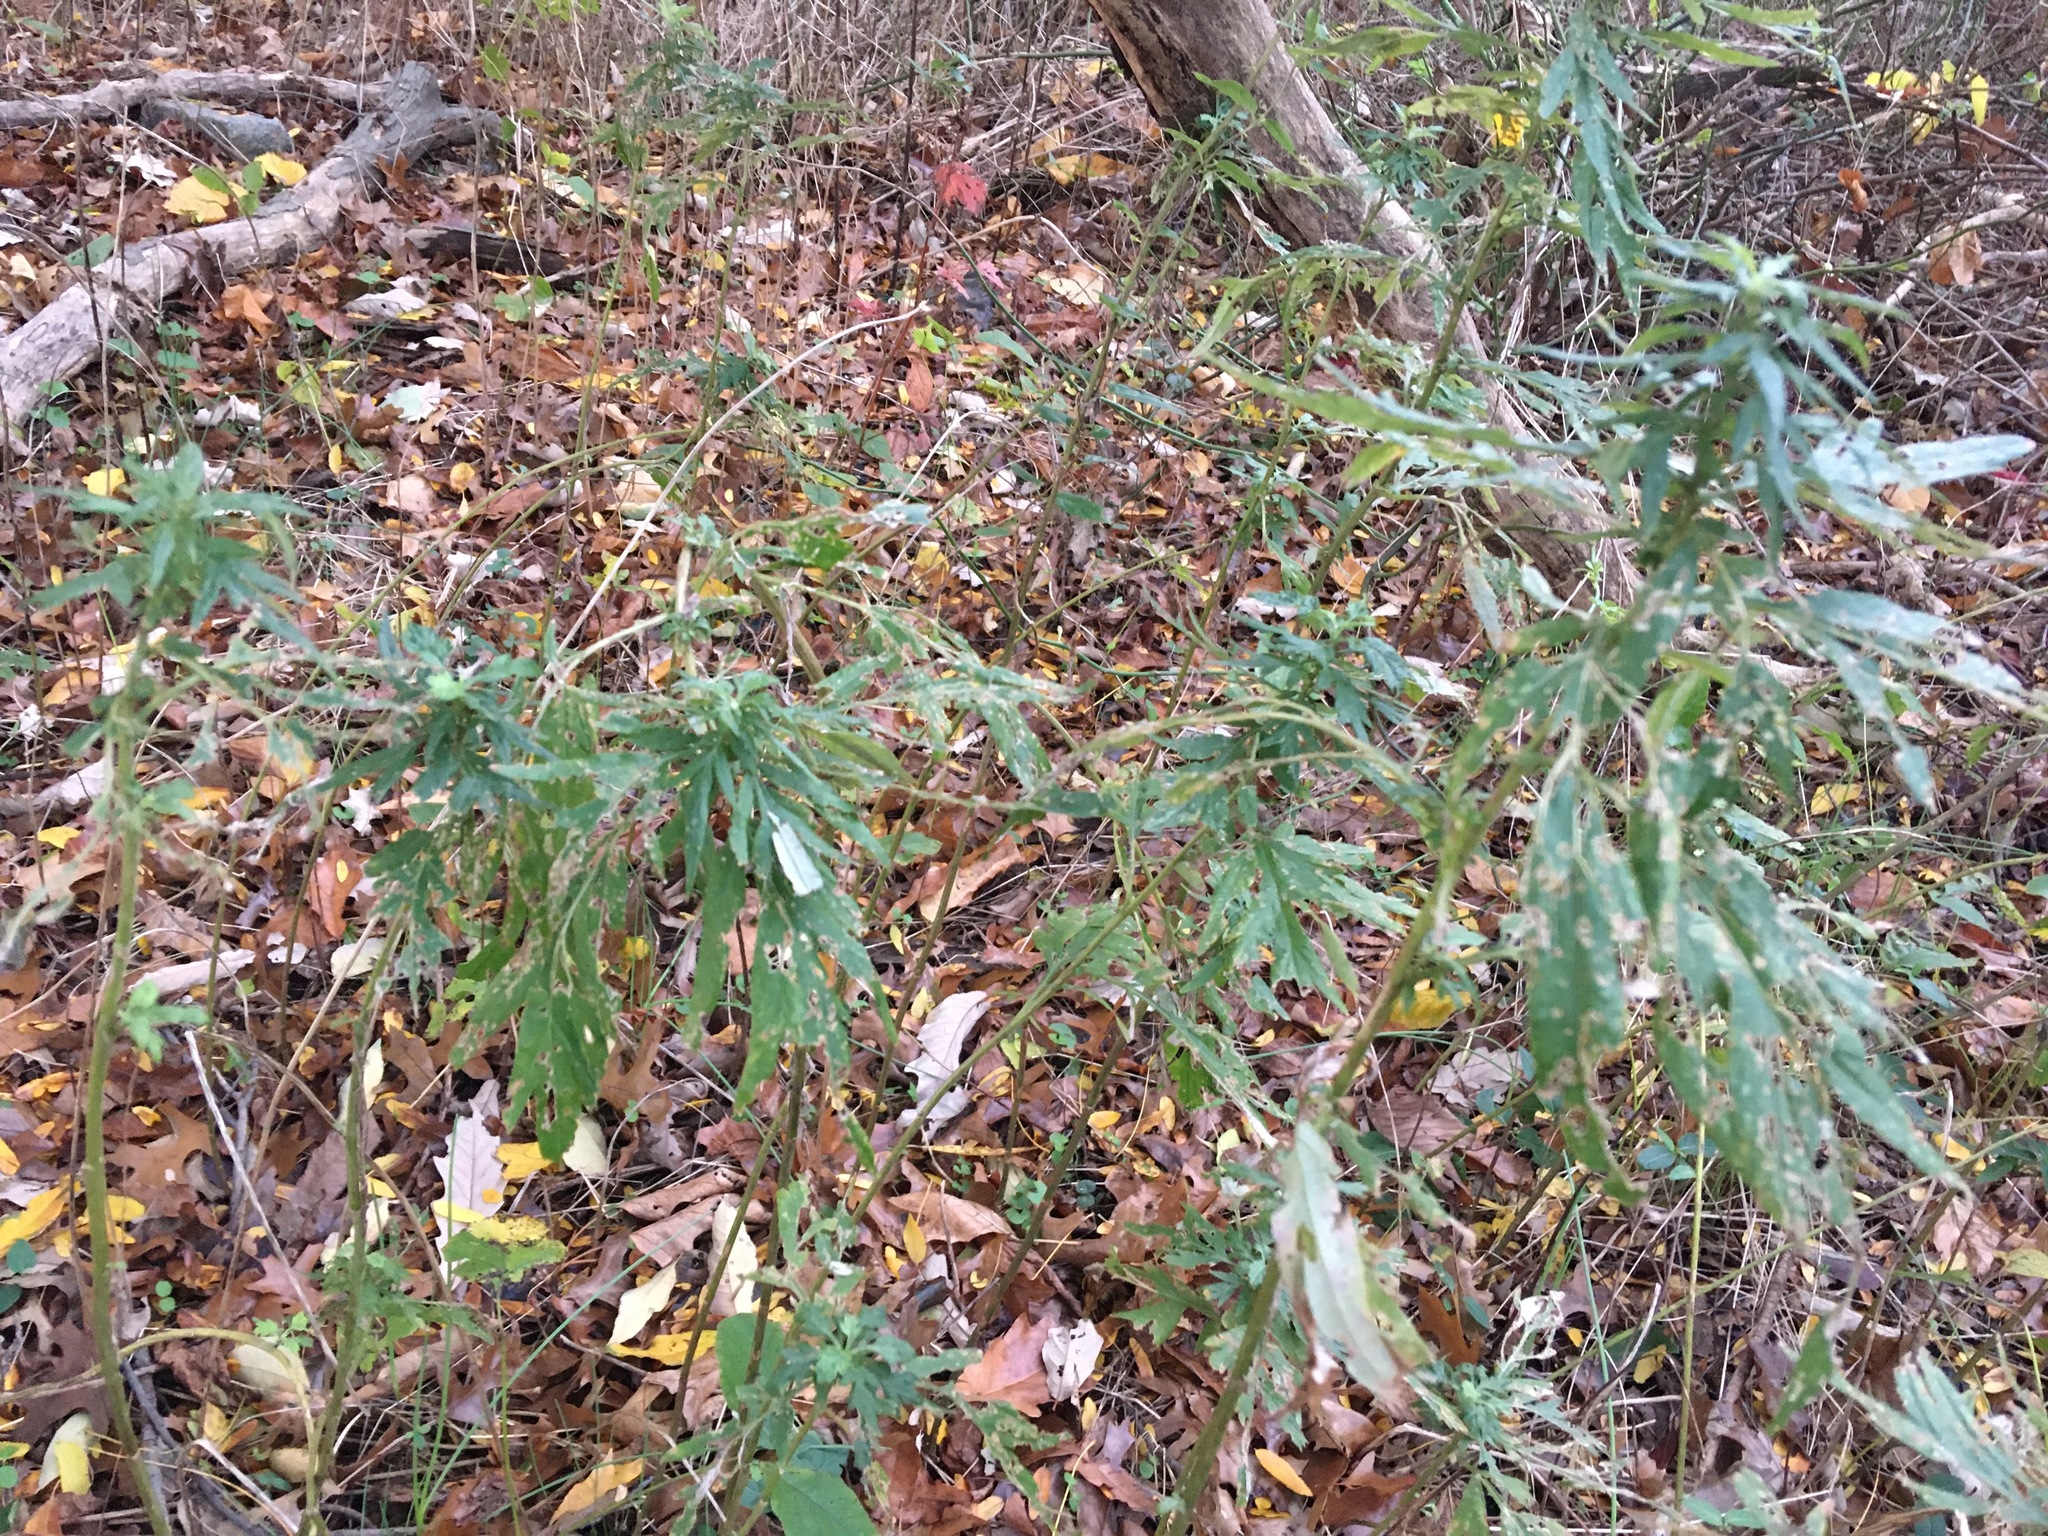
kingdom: Plantae
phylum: Tracheophyta
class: Magnoliopsida
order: Asterales
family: Asteraceae
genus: Artemisia
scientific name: Artemisia vulgaris
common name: Mugwort
